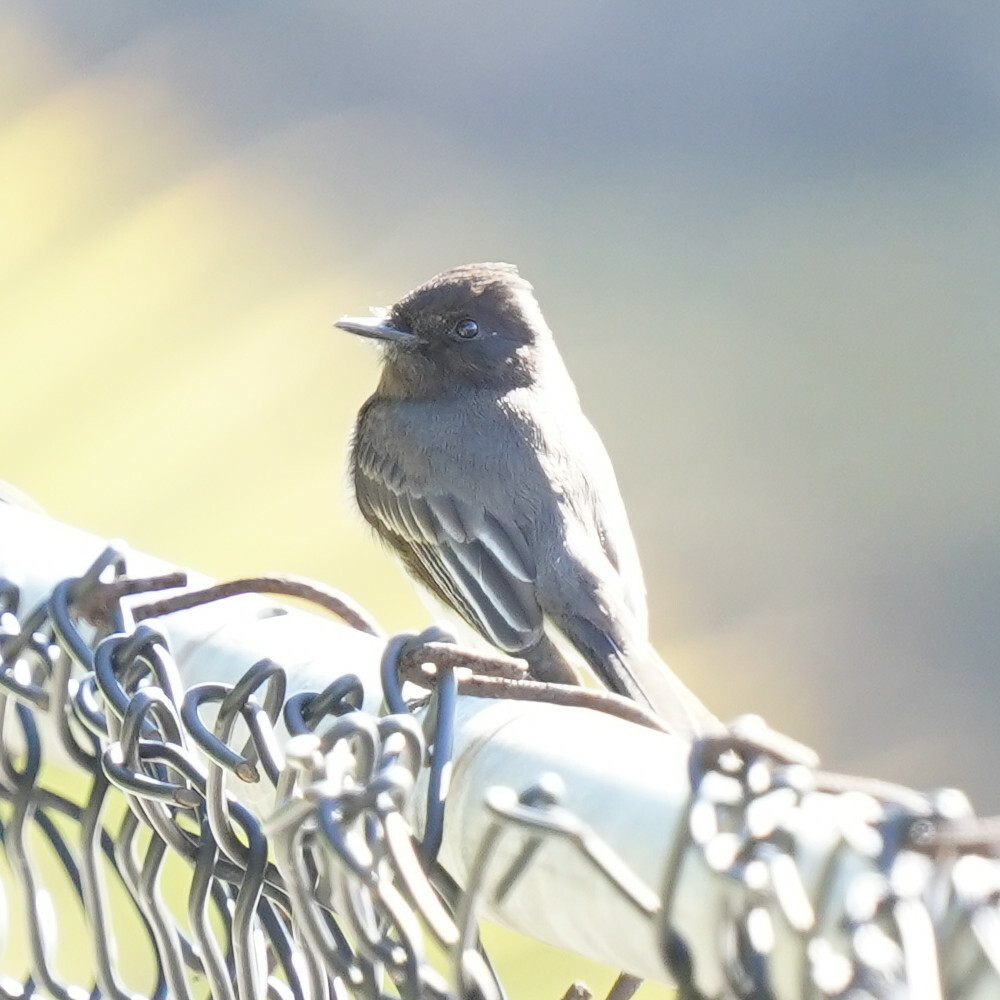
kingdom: Animalia
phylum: Chordata
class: Aves
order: Passeriformes
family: Tyrannidae
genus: Sayornis
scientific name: Sayornis nigricans
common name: Black phoebe
